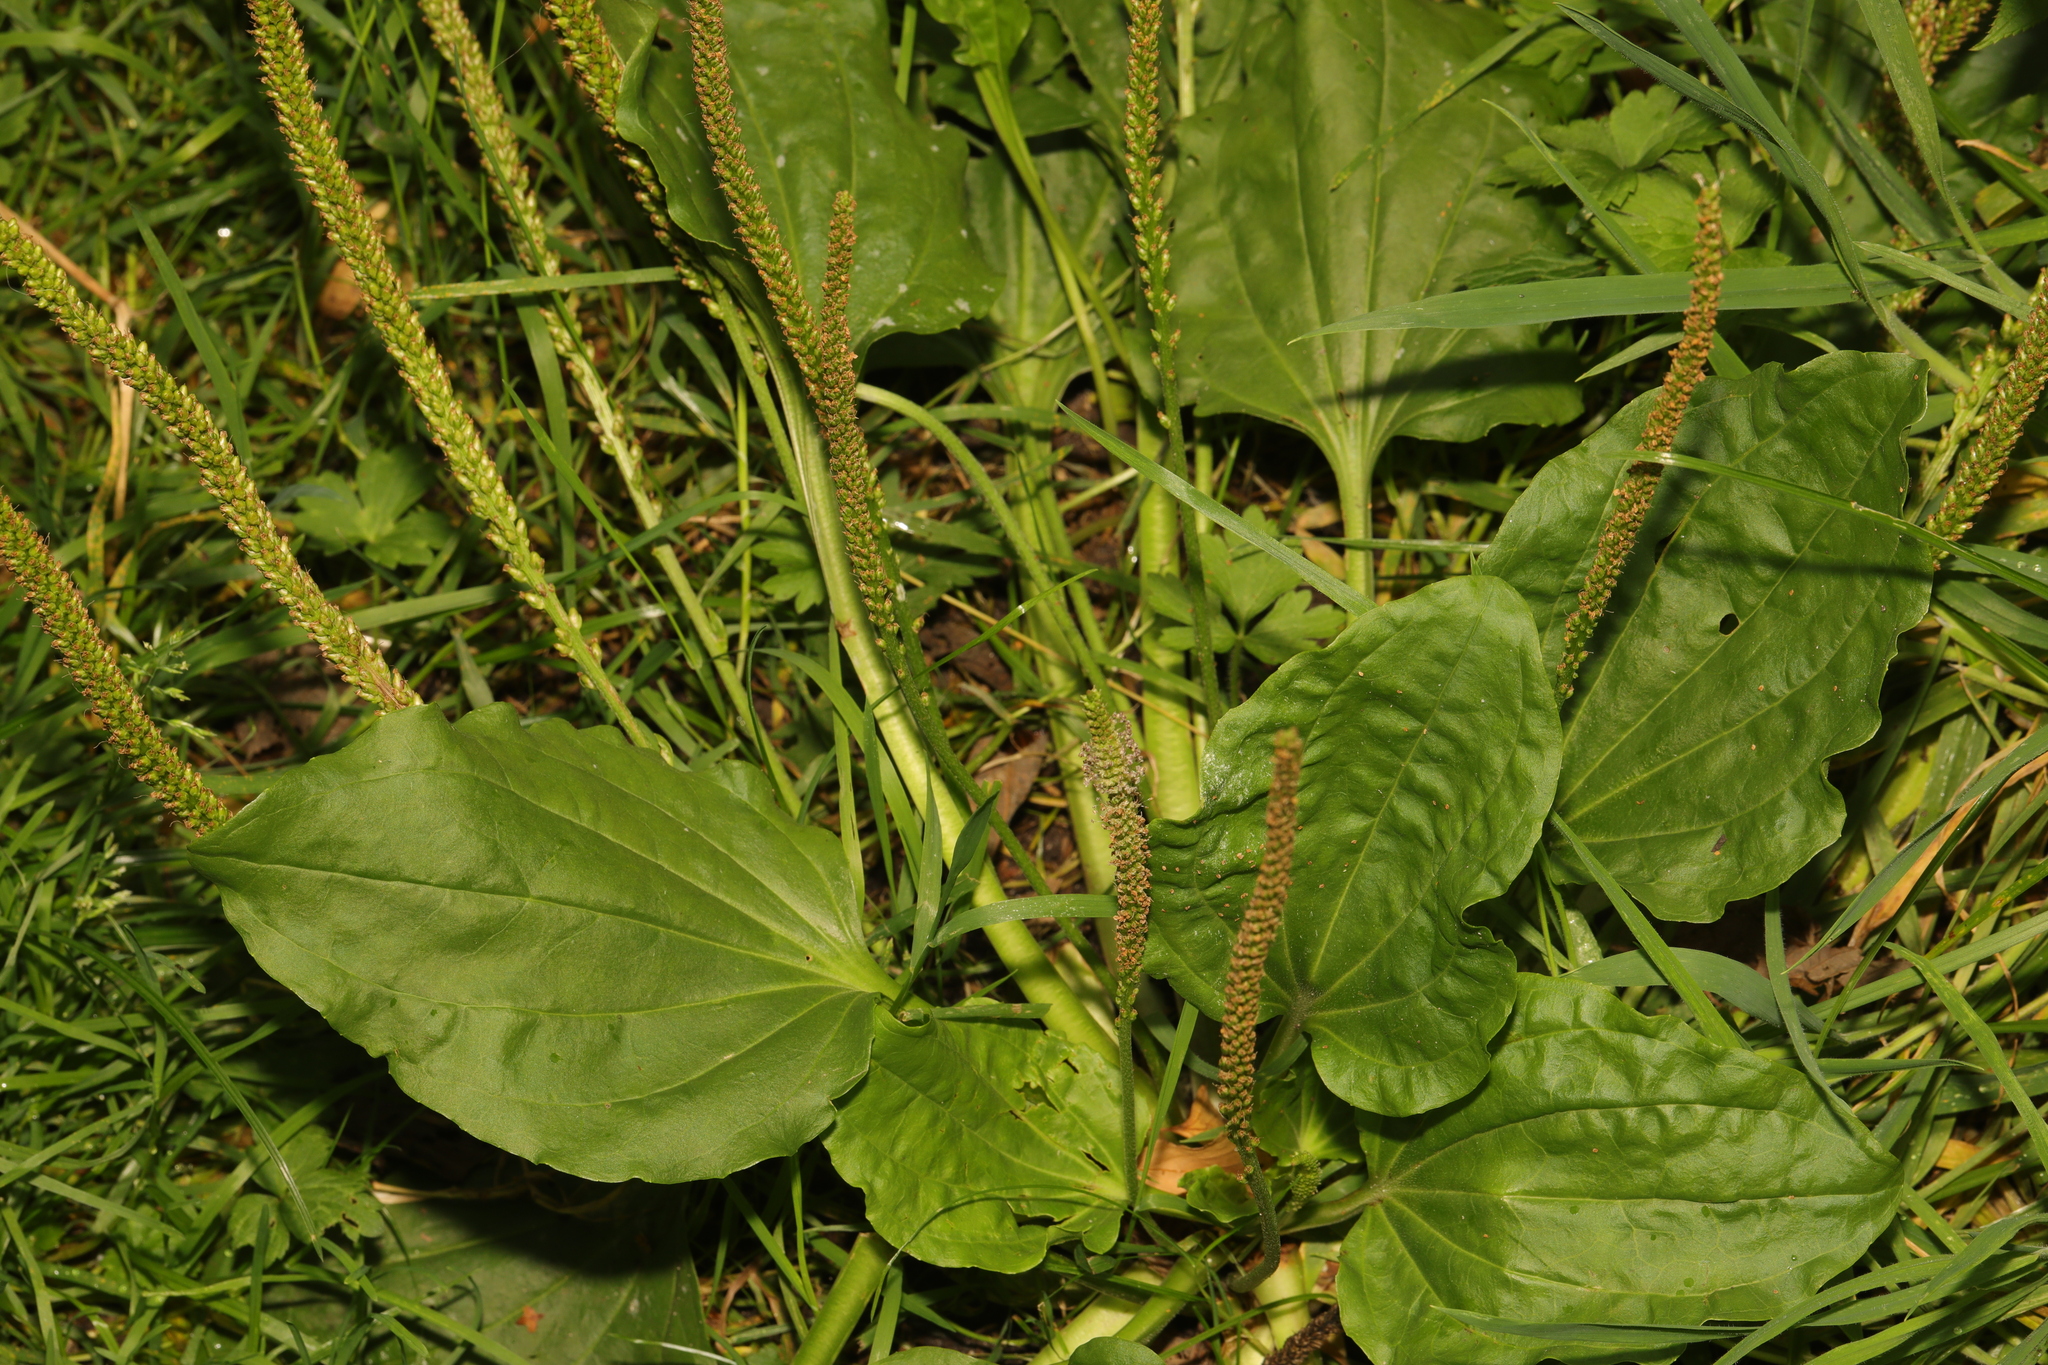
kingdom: Plantae
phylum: Tracheophyta
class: Magnoliopsida
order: Lamiales
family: Plantaginaceae
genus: Plantago
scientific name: Plantago major
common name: Common plantain
